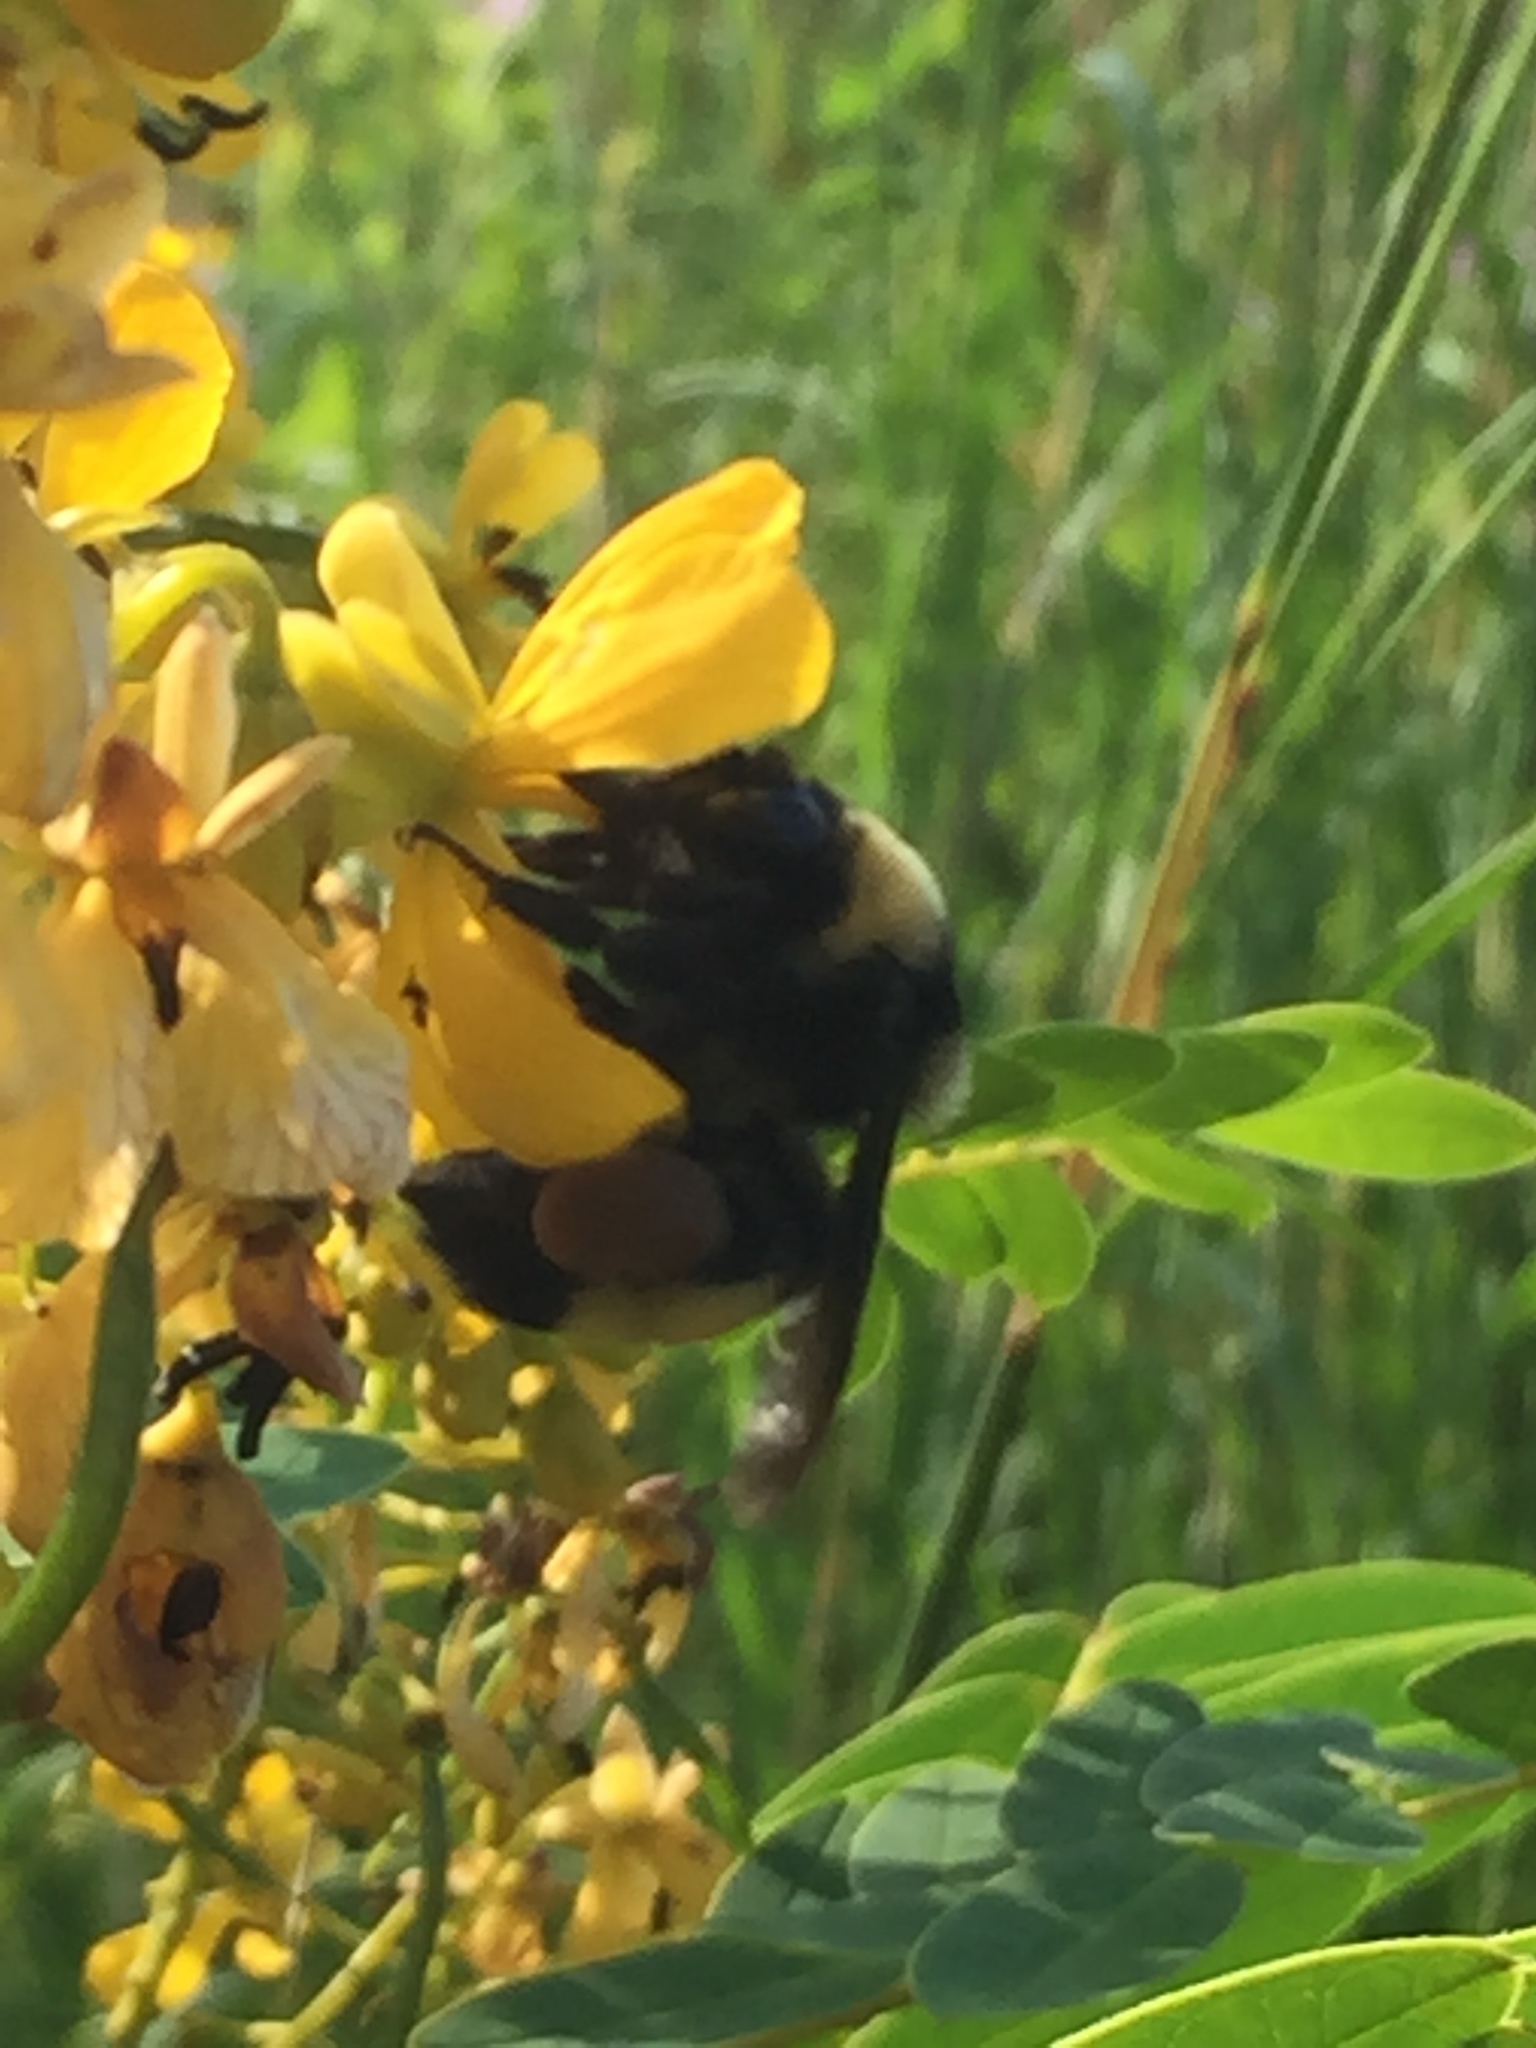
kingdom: Animalia
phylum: Arthropoda
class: Insecta
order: Hymenoptera
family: Apidae
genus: Bombus
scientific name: Bombus auricomus
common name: Black and gold bumble bee
